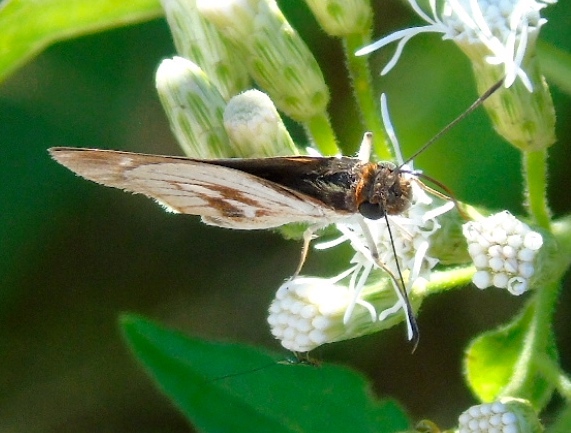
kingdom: Animalia
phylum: Arthropoda
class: Insecta
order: Lepidoptera
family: Hesperiidae
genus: Troyus
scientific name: Troyus fantasos
